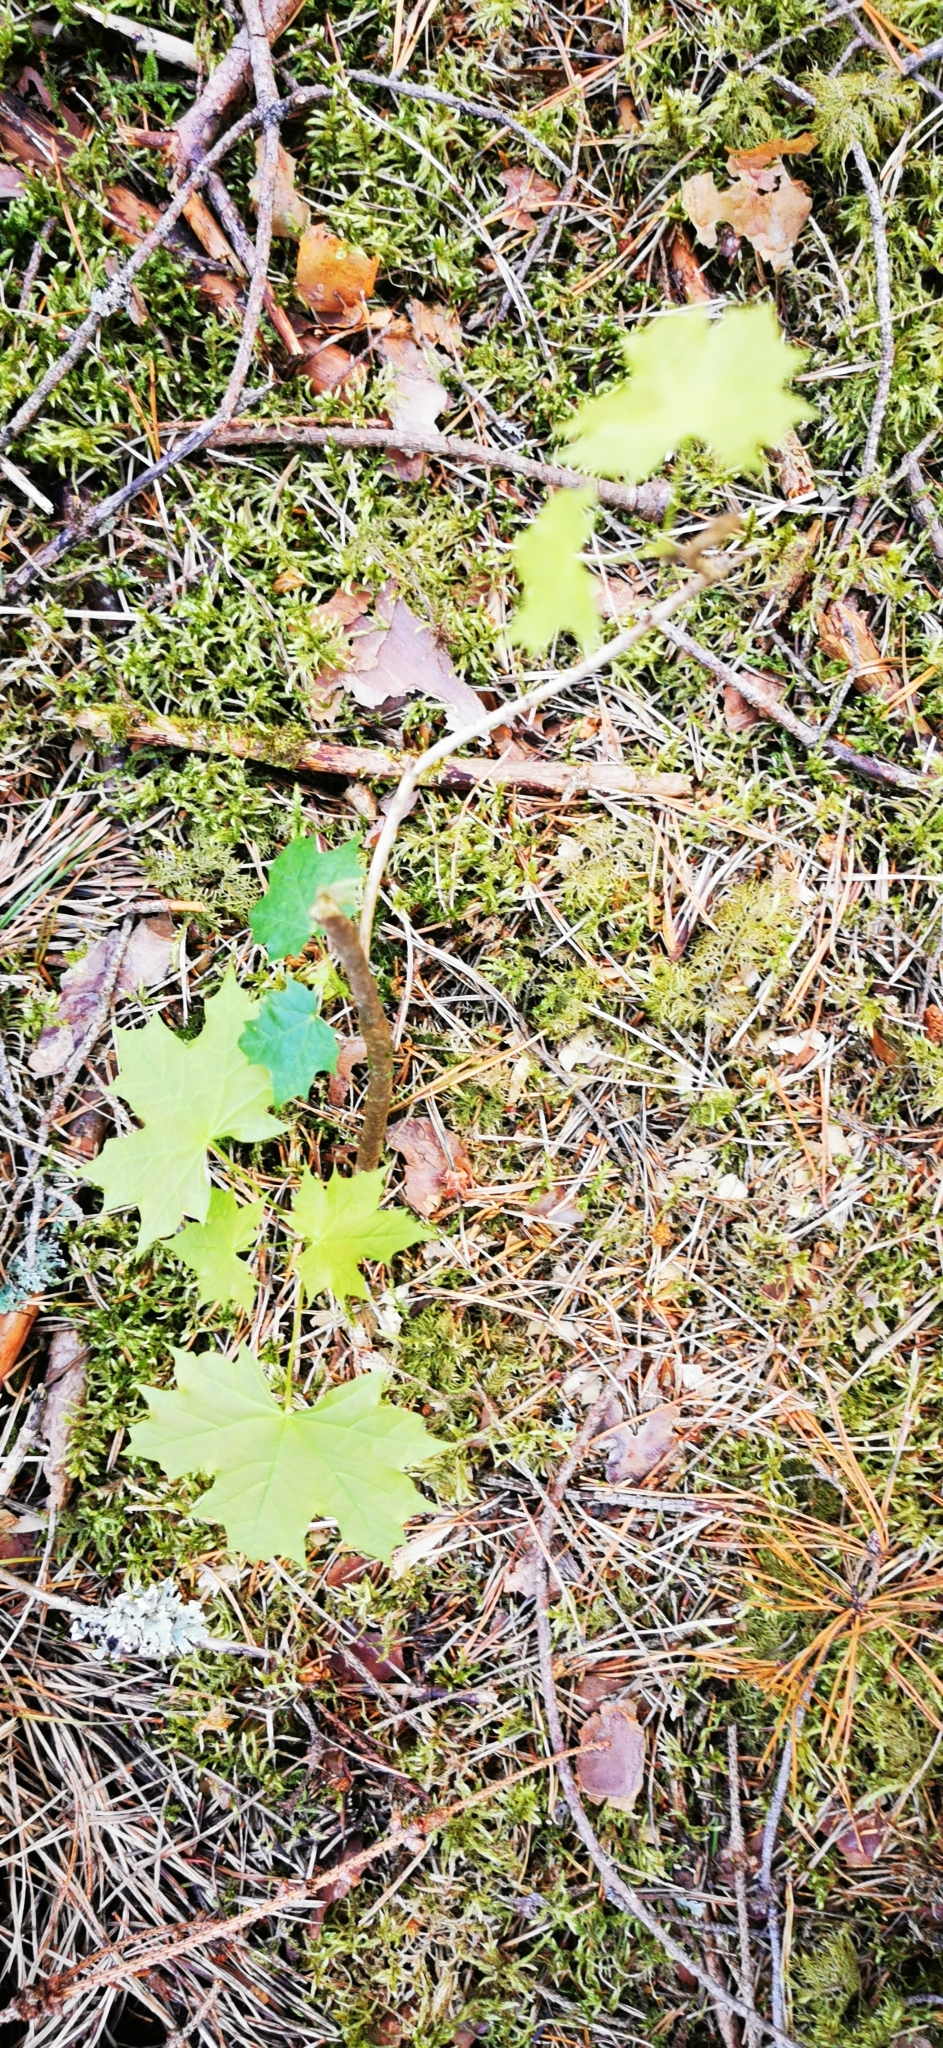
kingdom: Plantae
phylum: Tracheophyta
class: Magnoliopsida
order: Sapindales
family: Sapindaceae
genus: Acer
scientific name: Acer platanoides
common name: Norway maple
